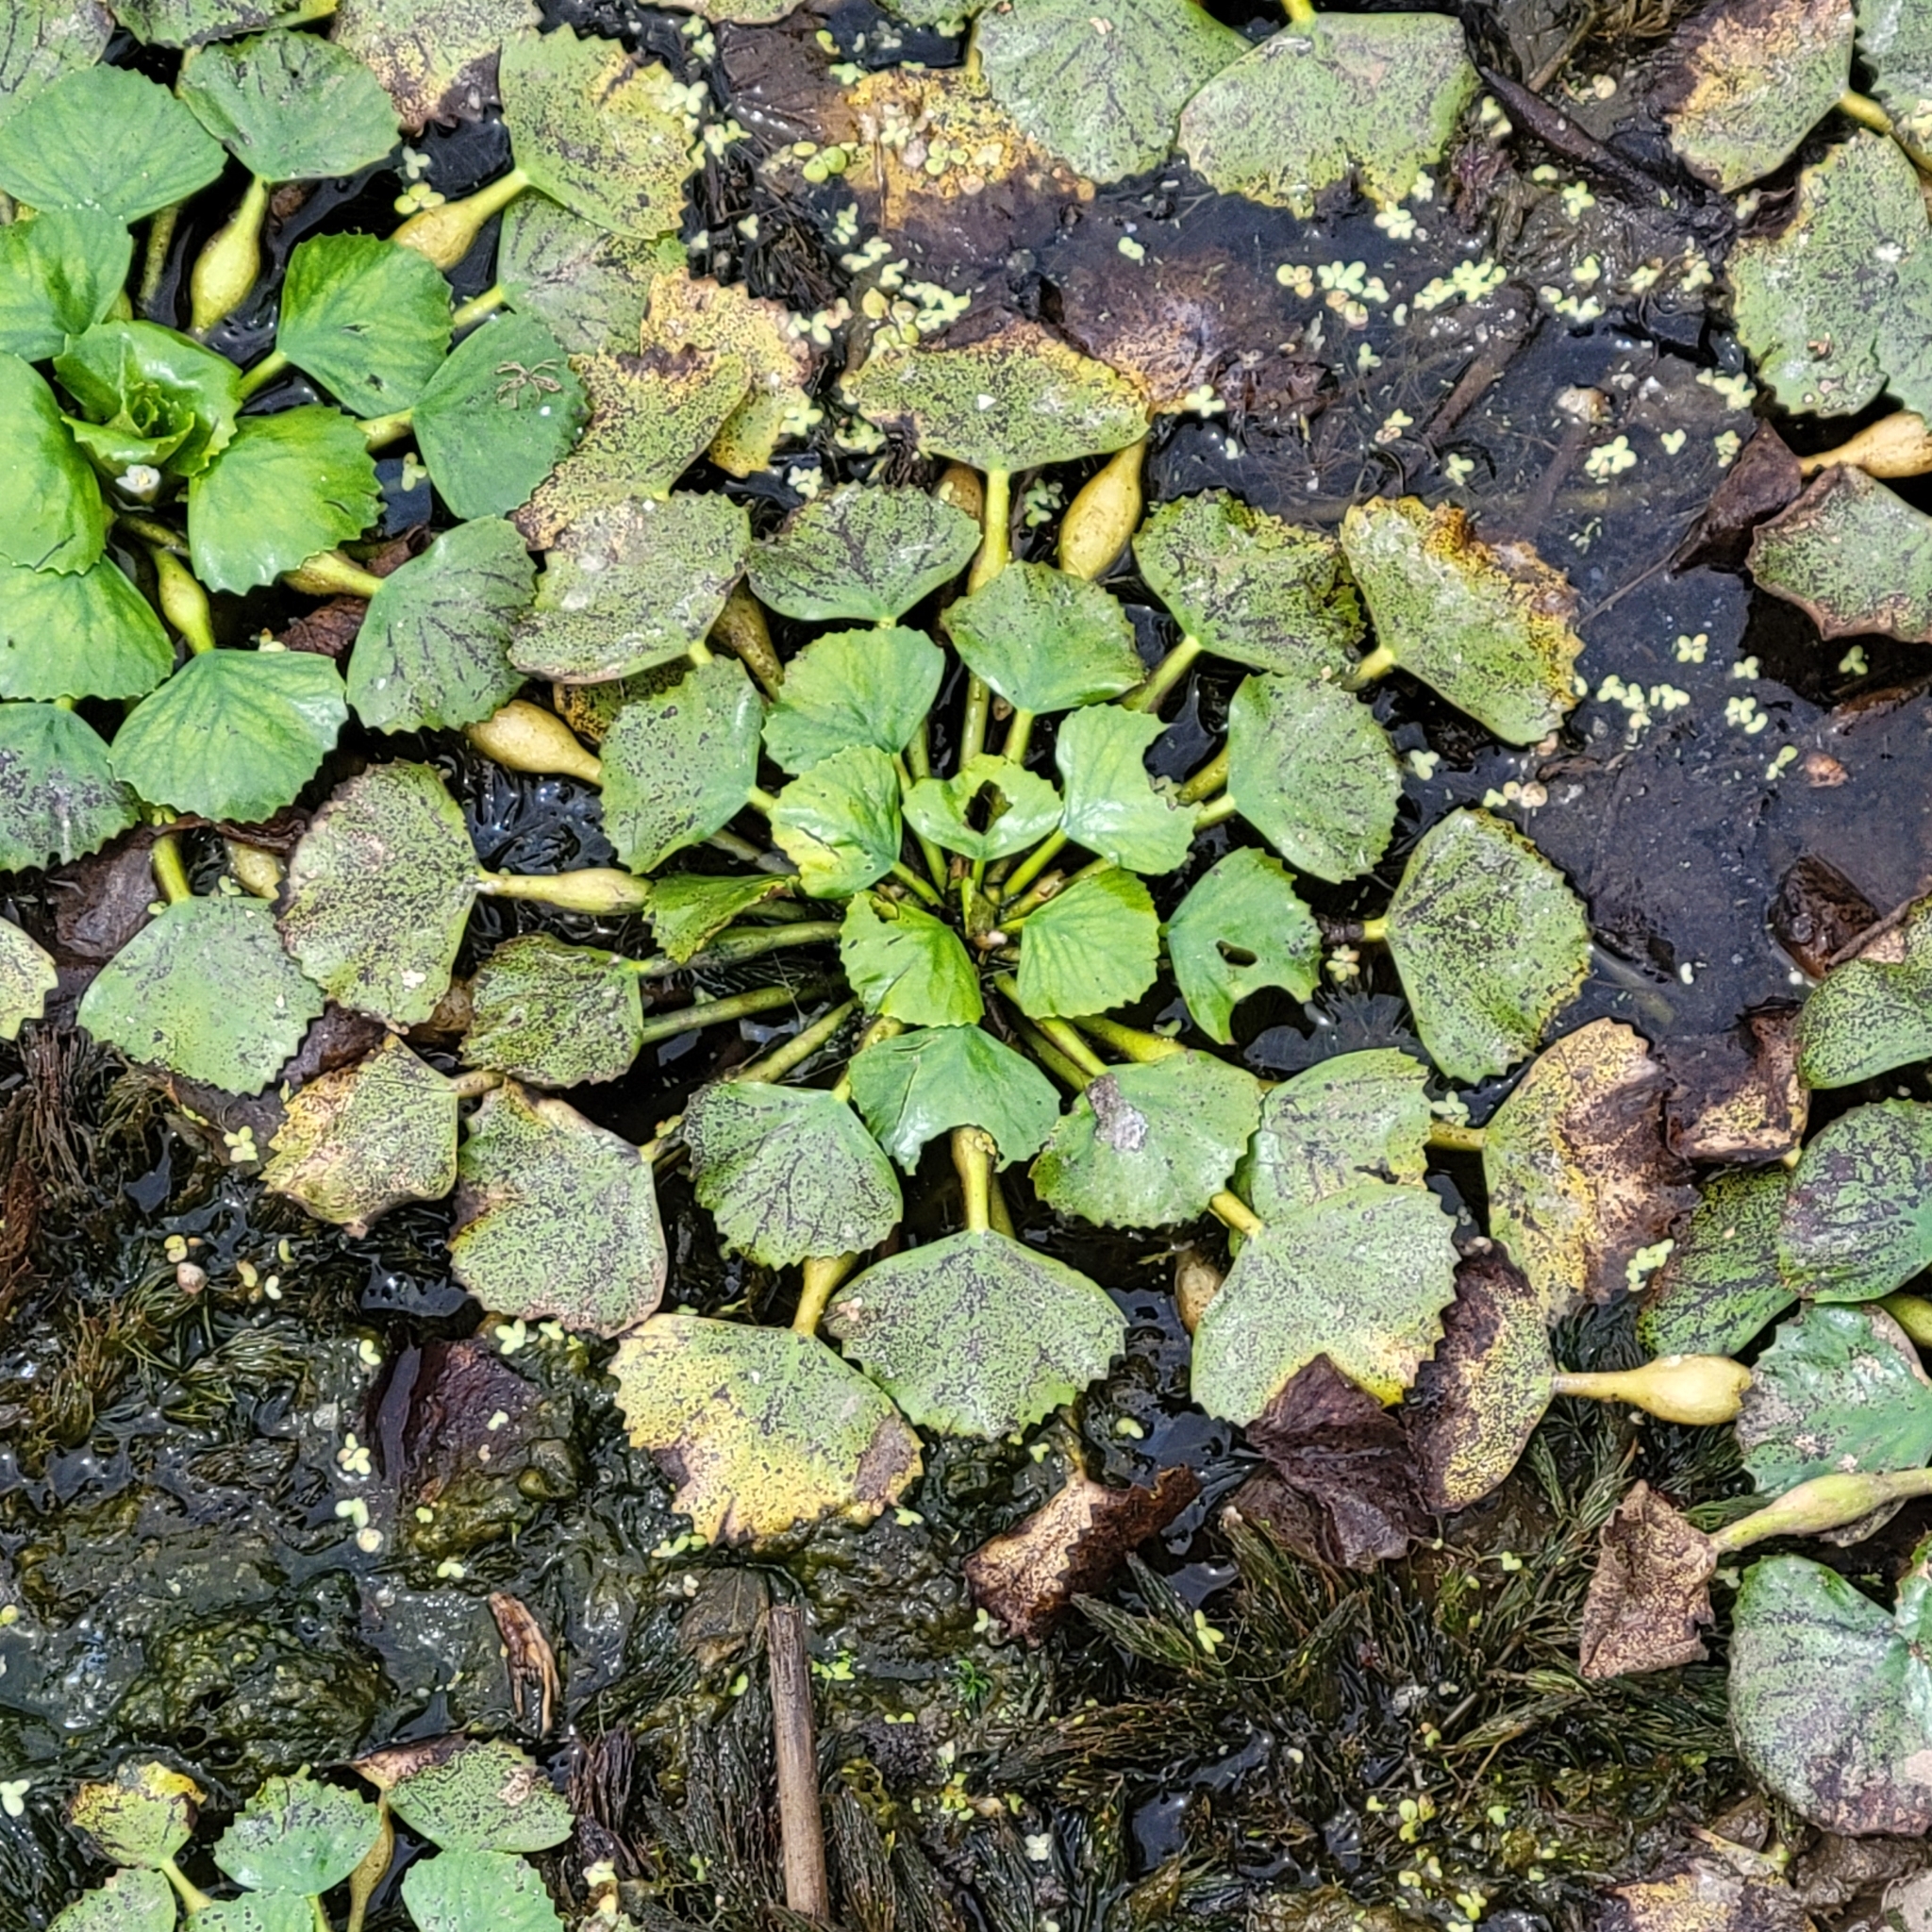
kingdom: Plantae
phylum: Tracheophyta
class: Magnoliopsida
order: Myrtales
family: Lythraceae
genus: Trapa
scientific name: Trapa natans
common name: Water chestnut
